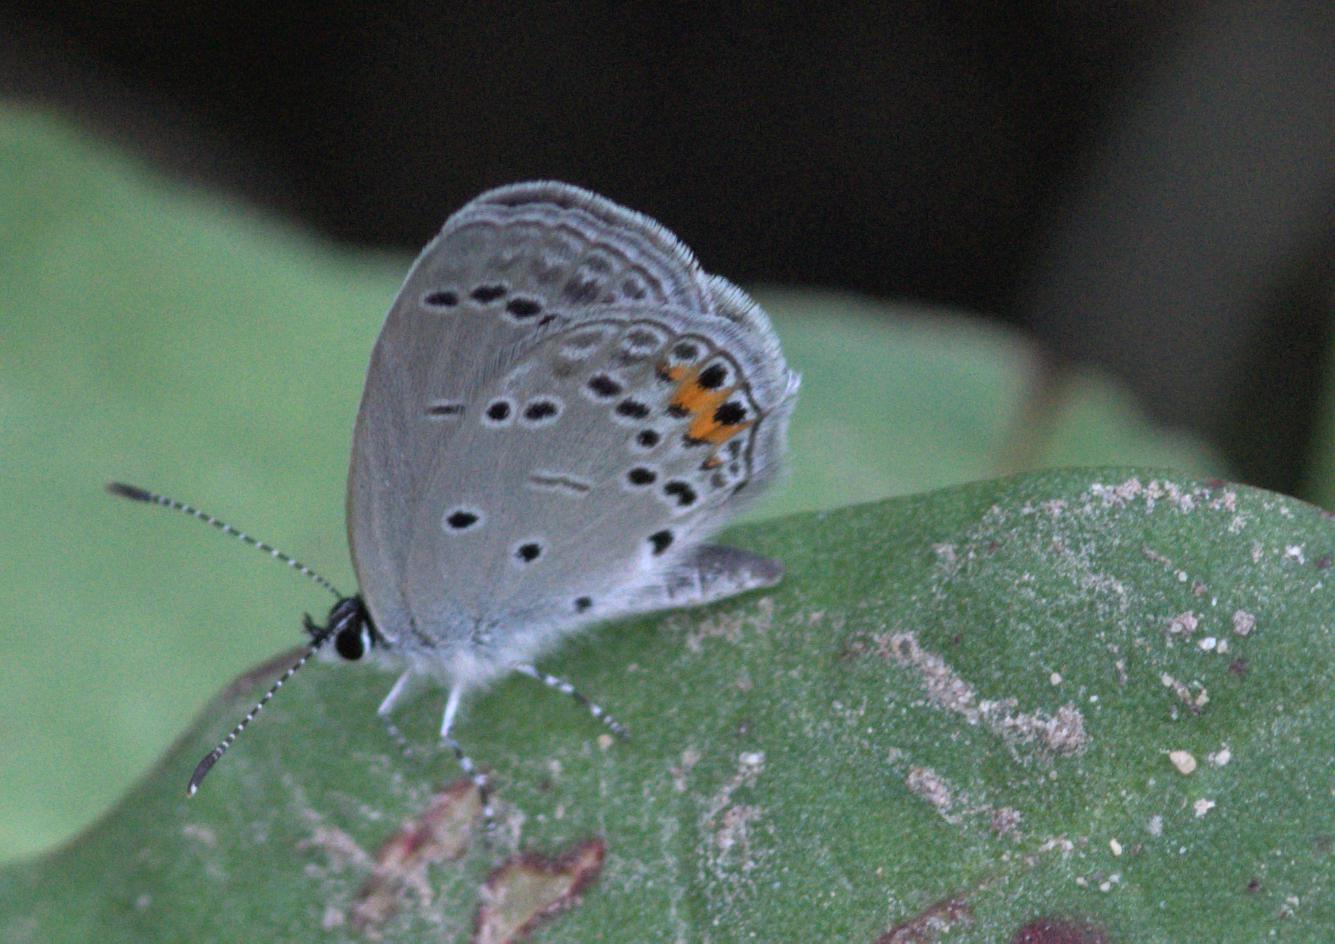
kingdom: Animalia
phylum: Arthropoda
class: Insecta
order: Lepidoptera
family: Lycaenidae
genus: Elkalyce
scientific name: Elkalyce argiades
